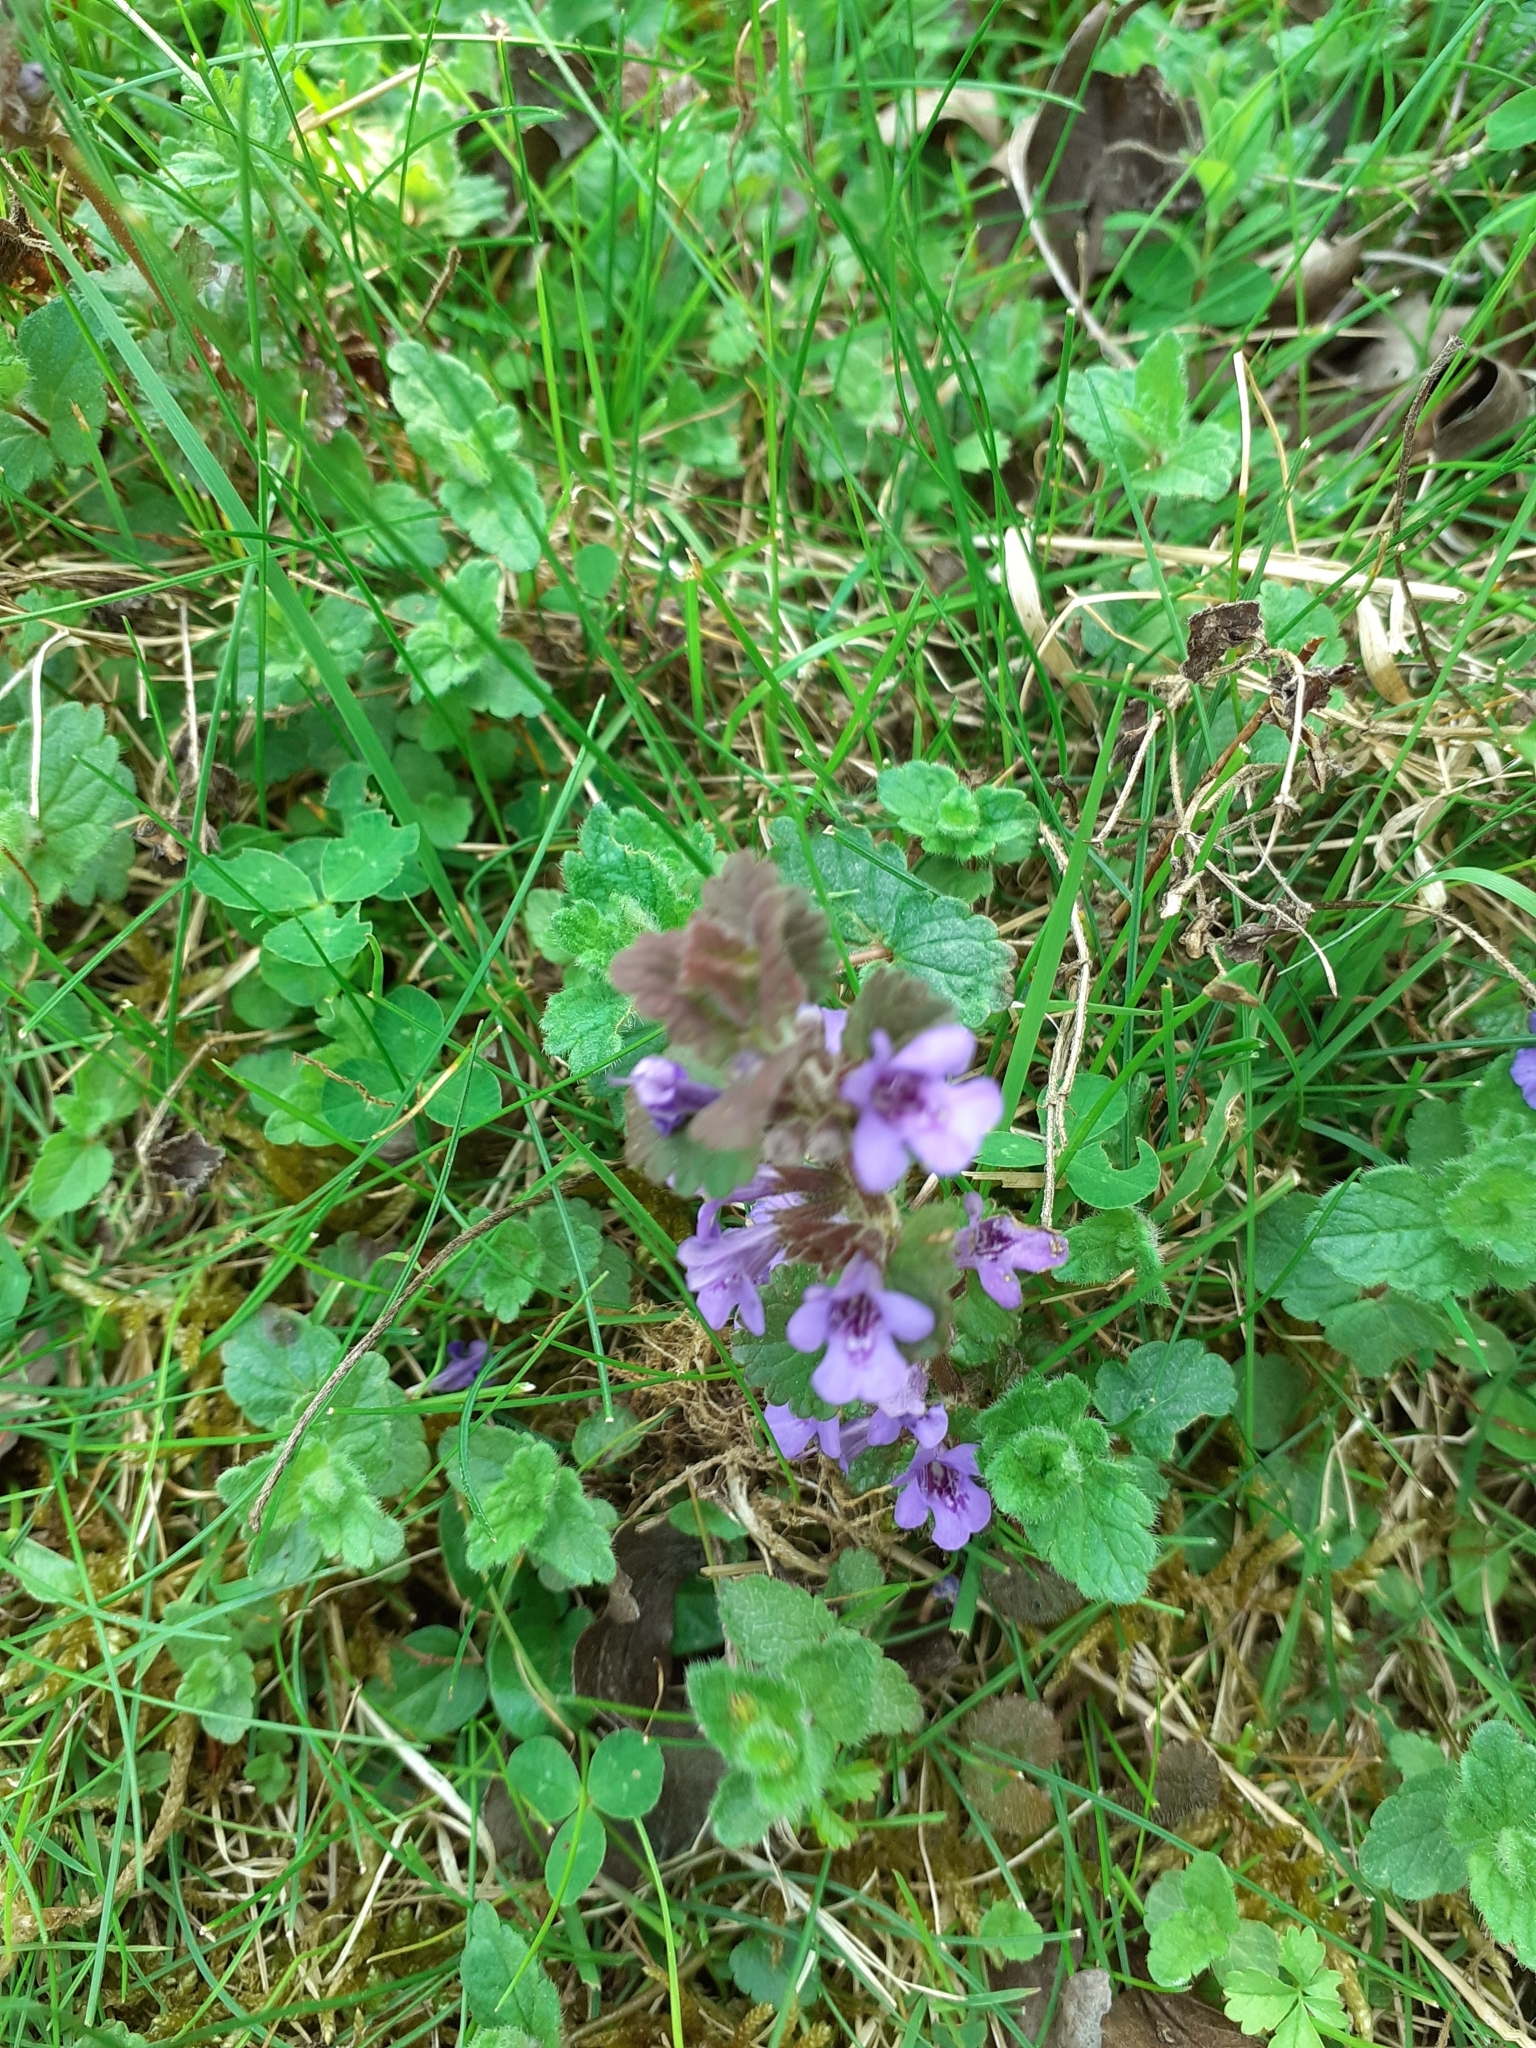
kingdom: Plantae
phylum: Tracheophyta
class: Magnoliopsida
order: Lamiales
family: Lamiaceae
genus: Glechoma
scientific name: Glechoma hederacea
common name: Ground ivy
